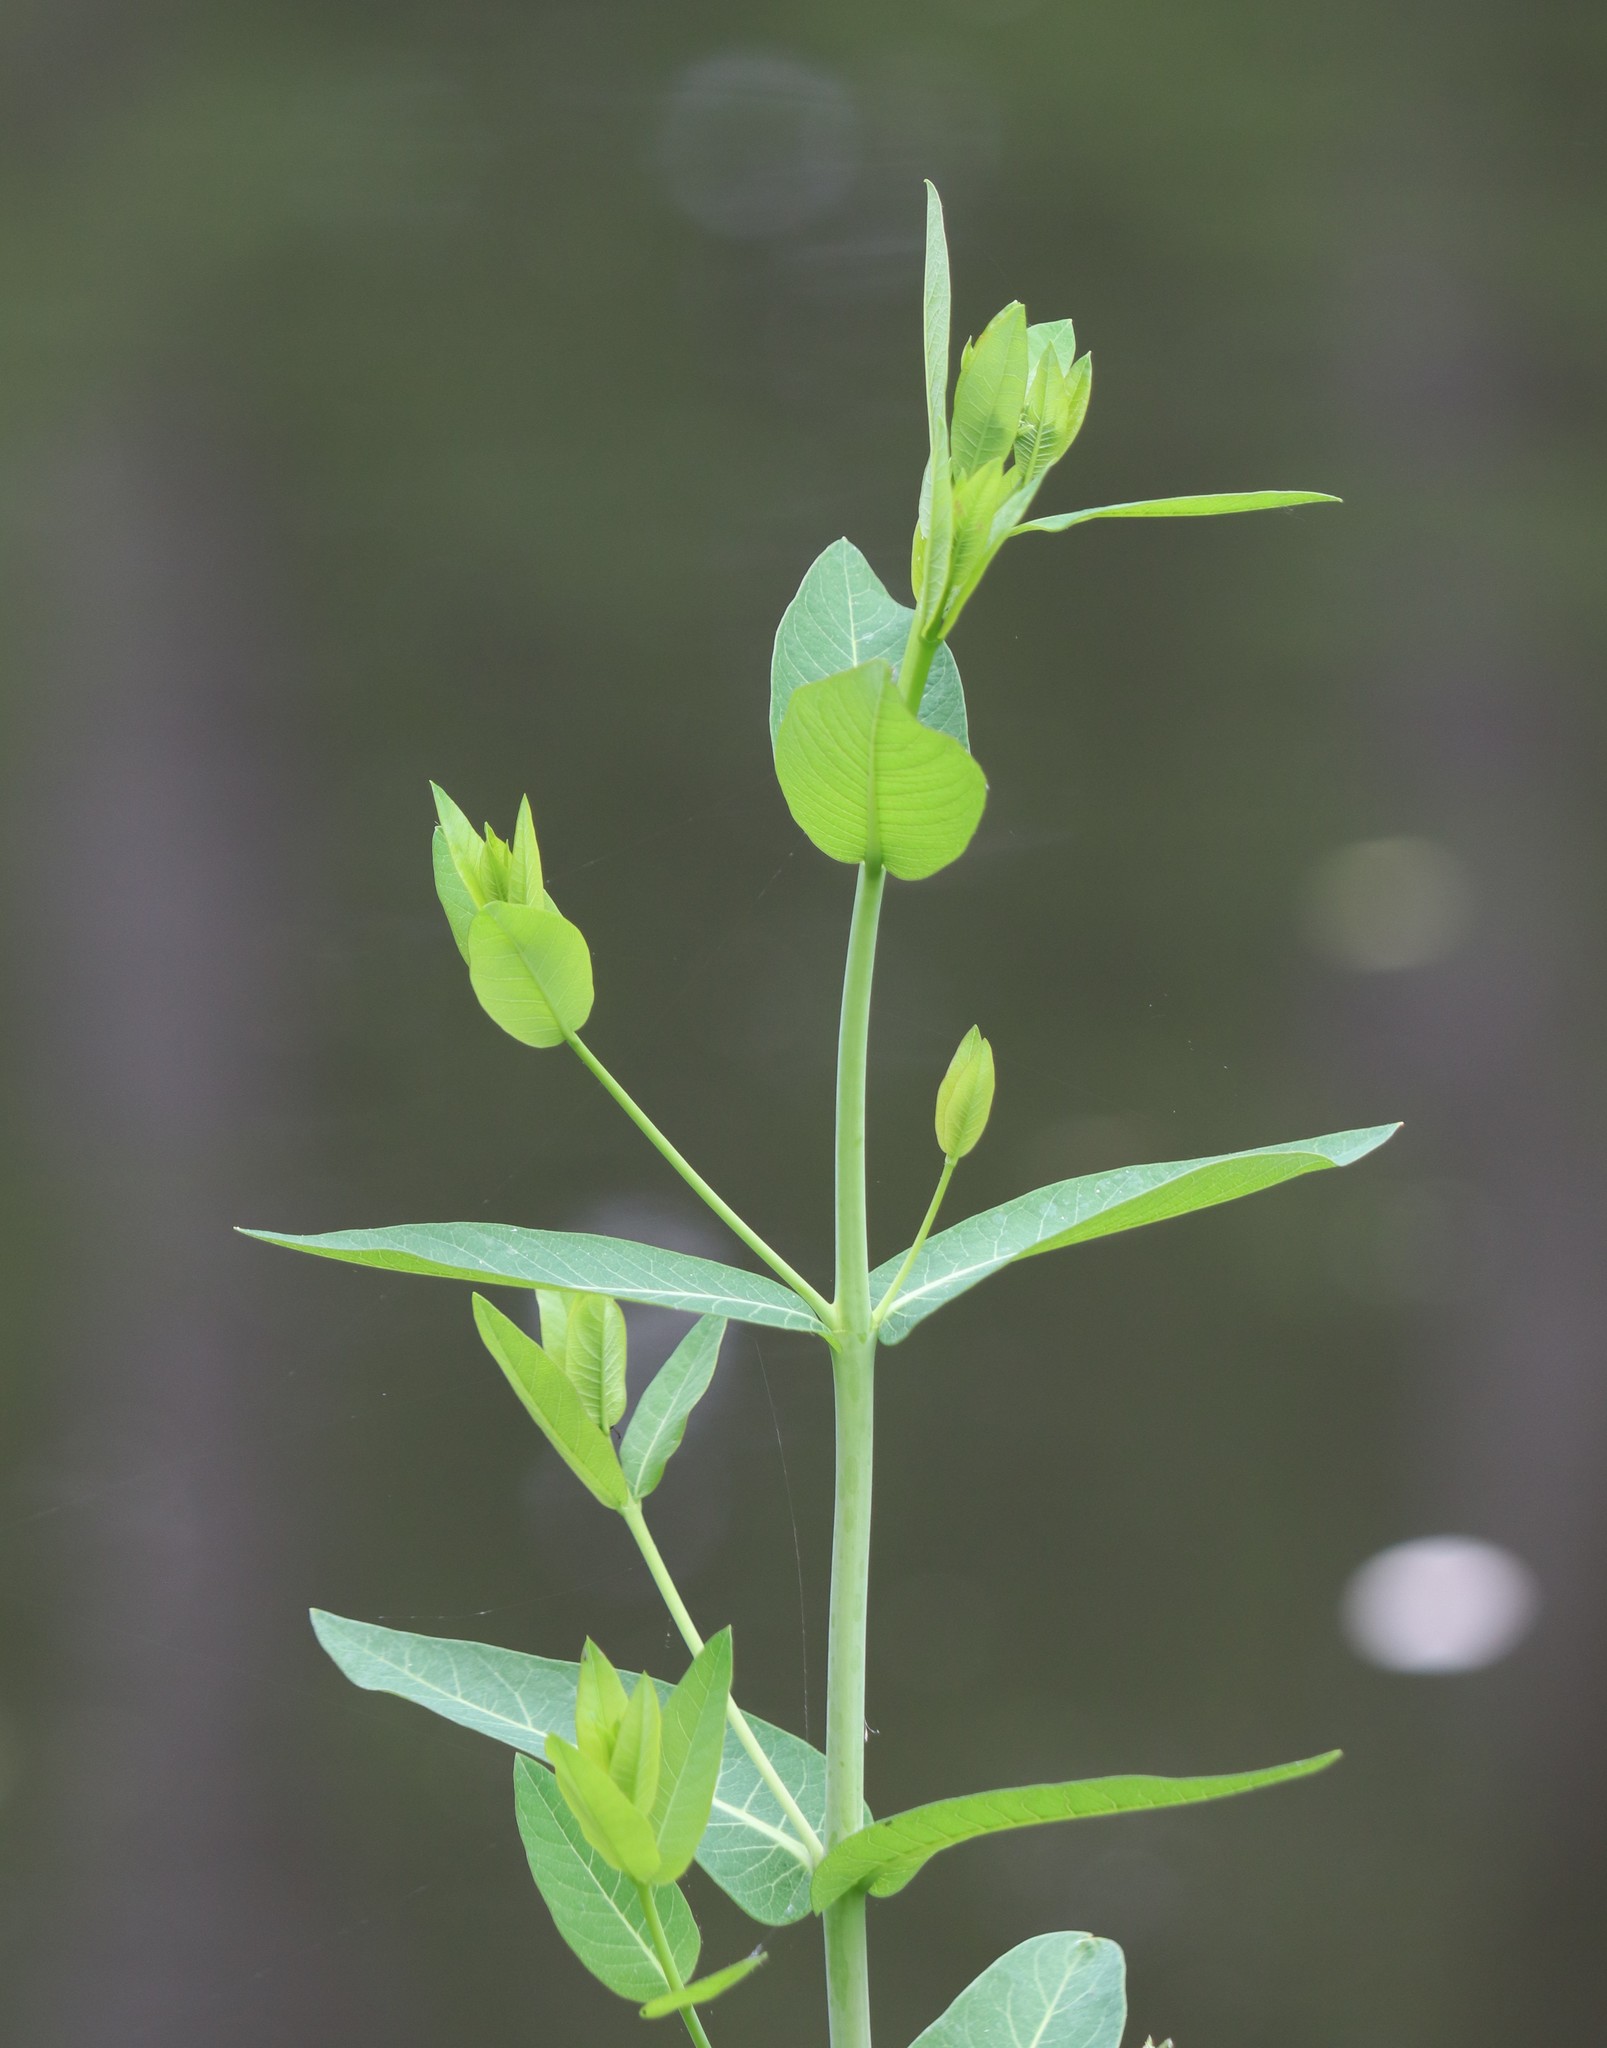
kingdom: Plantae
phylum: Tracheophyta
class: Magnoliopsida
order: Gentianales
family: Apocynaceae
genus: Apocynum
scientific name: Apocynum cannabinum
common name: Hemp dogbane
